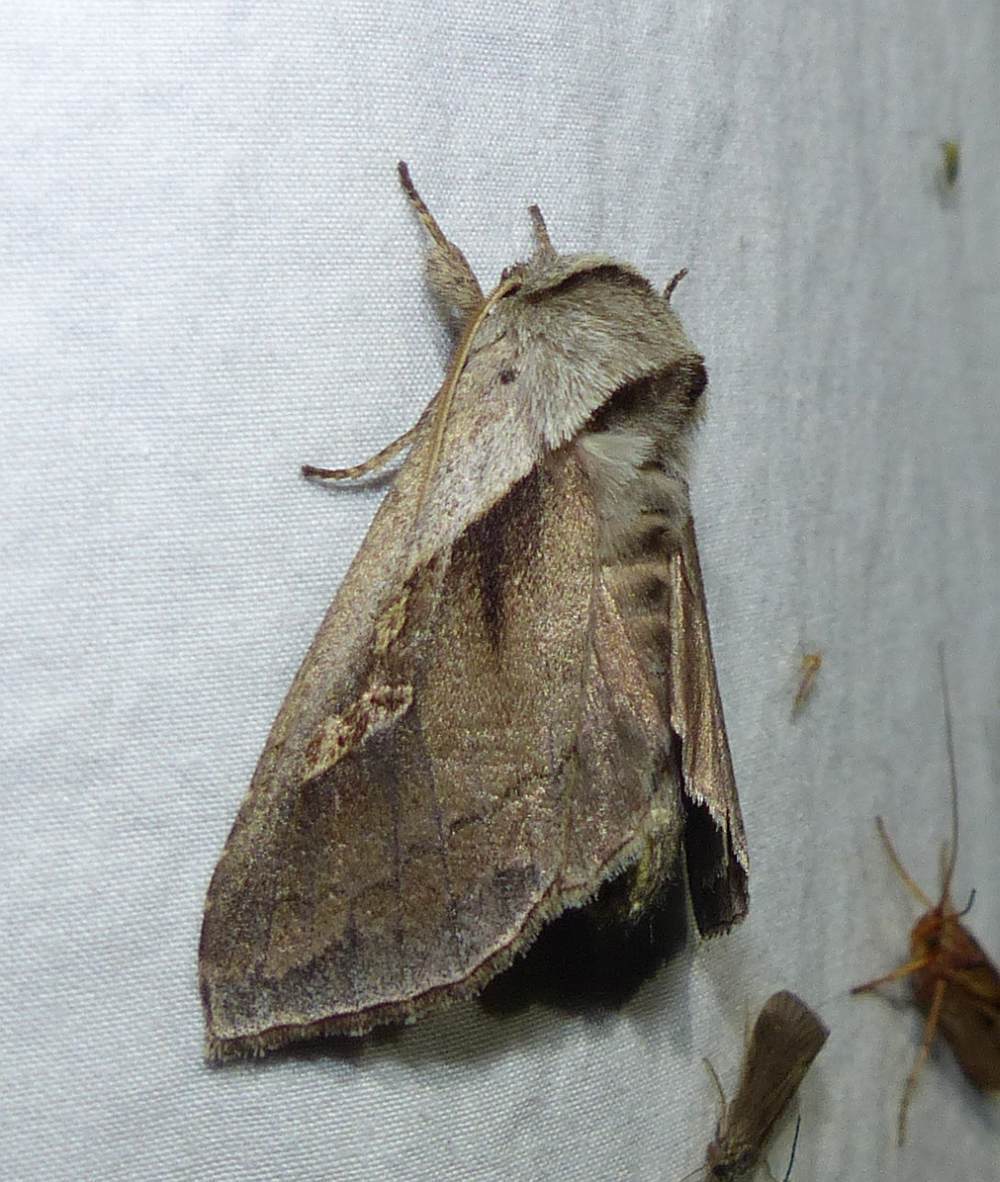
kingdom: Animalia
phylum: Arthropoda
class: Insecta
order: Lepidoptera
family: Noctuidae
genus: Bellura
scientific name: Bellura obliqua
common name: Cattail borer moth
